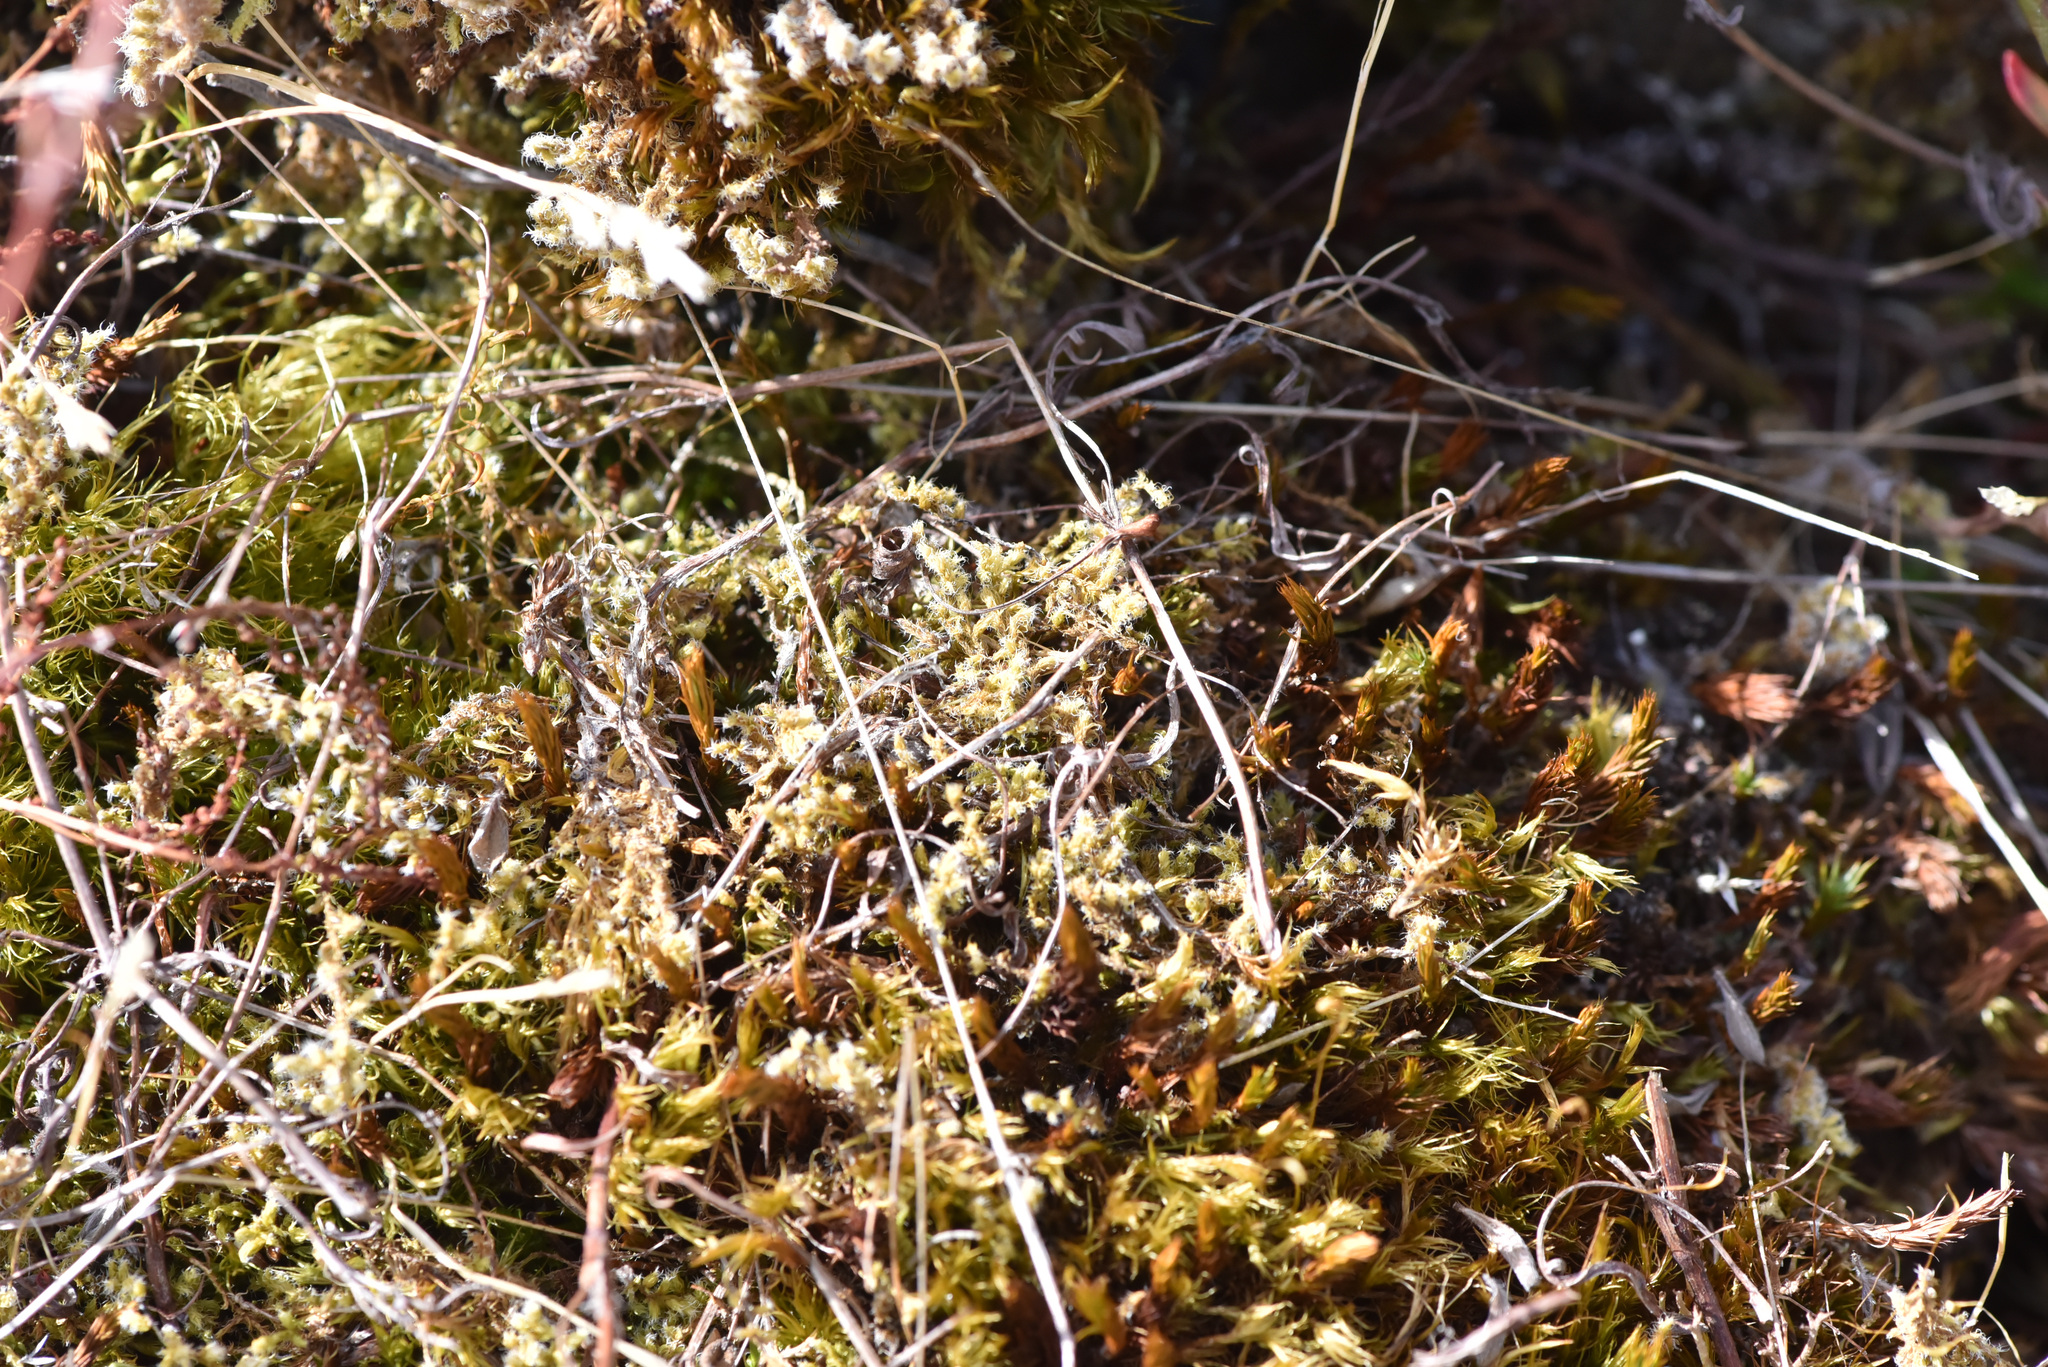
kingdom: Plantae
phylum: Bryophyta
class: Bryopsida
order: Grimmiales
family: Grimmiaceae
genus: Niphotrichum
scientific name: Niphotrichum elongatum
